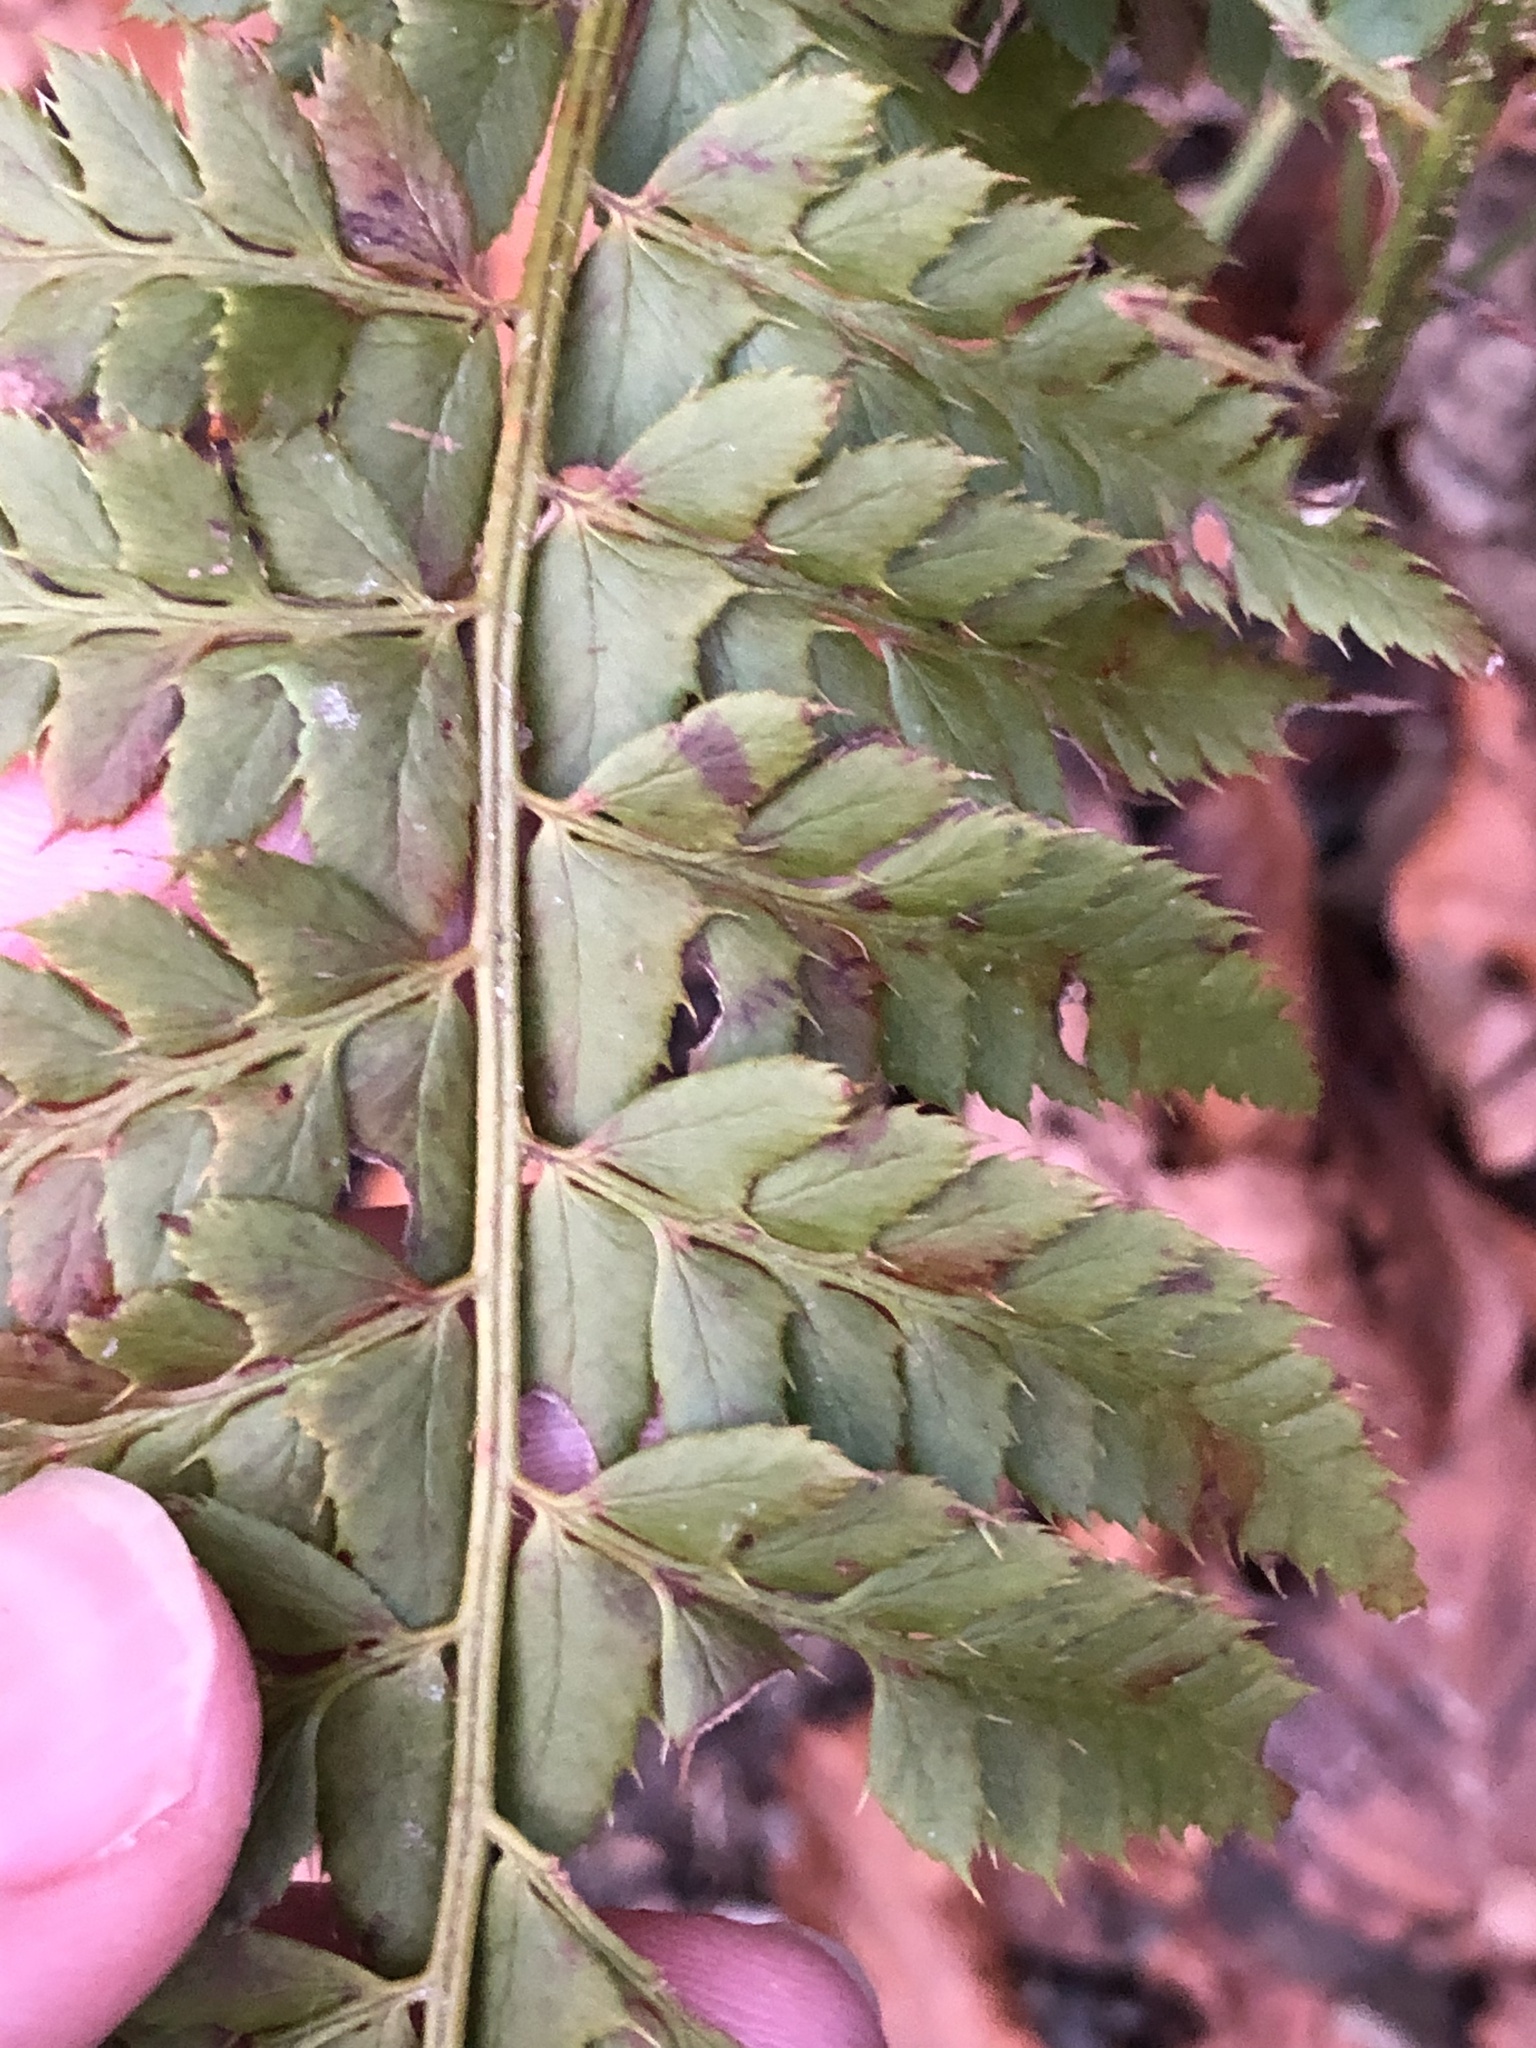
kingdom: Plantae
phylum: Tracheophyta
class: Polypodiopsida
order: Polypodiales
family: Dryopteridaceae
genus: Polystichum
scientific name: Polystichum aculeatum
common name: Hard shield-fern
